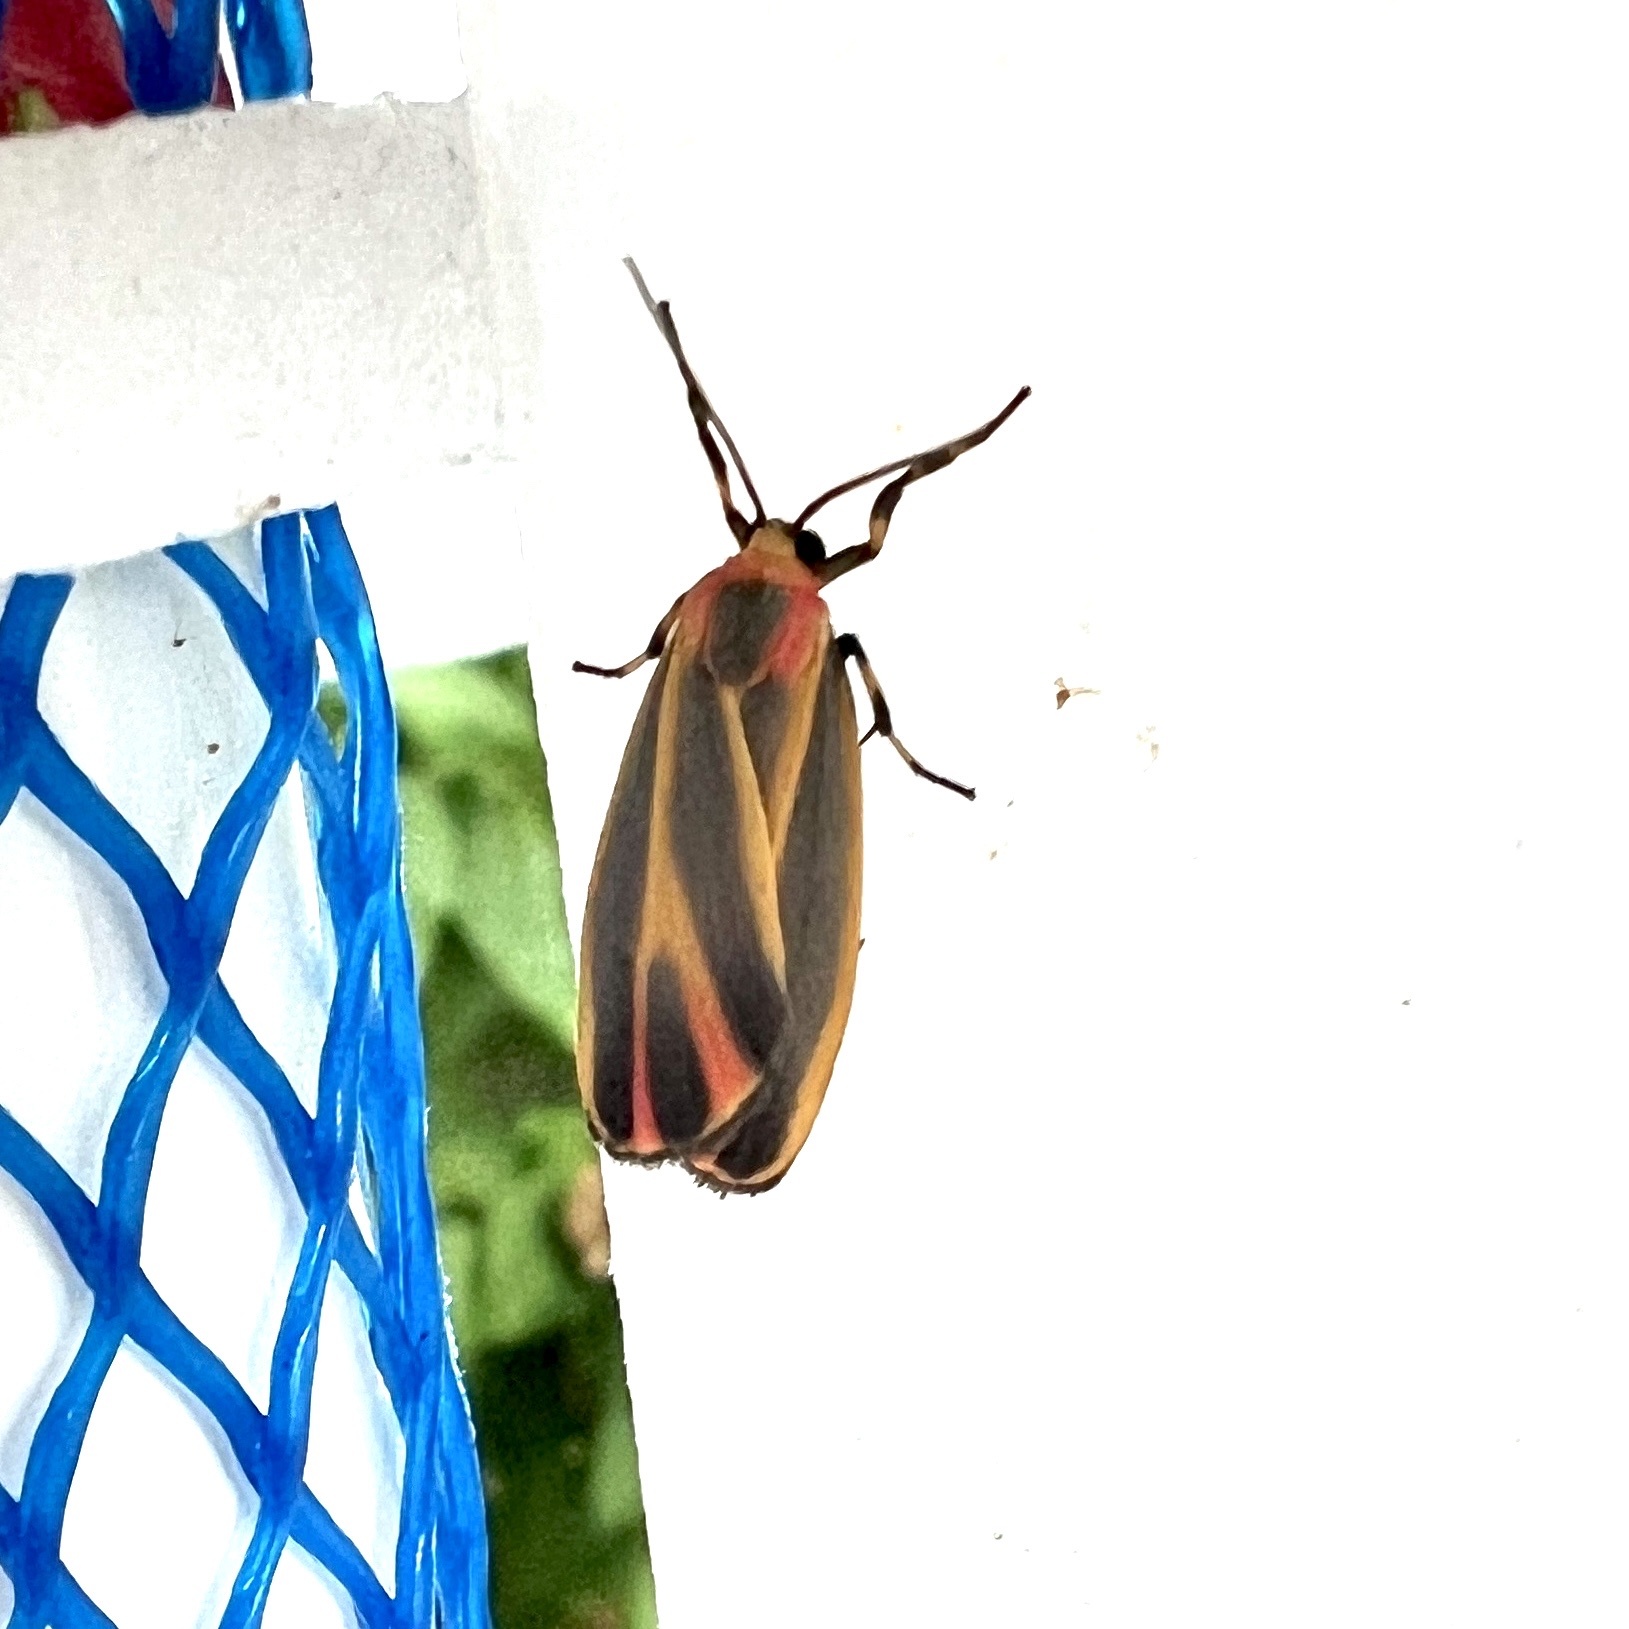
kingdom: Animalia
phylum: Arthropoda
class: Insecta
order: Lepidoptera
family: Erebidae
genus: Hypoprepia
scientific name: Hypoprepia fucosa
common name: Painted lichen moth
